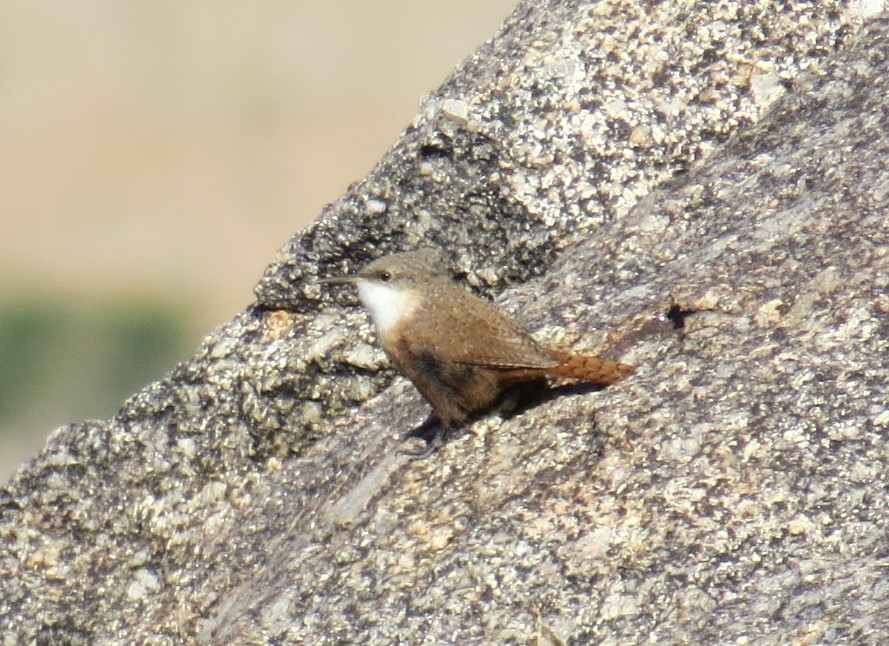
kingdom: Animalia
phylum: Chordata
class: Aves
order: Passeriformes
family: Troglodytidae
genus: Catherpes
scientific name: Catherpes mexicanus
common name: Canyon wren
